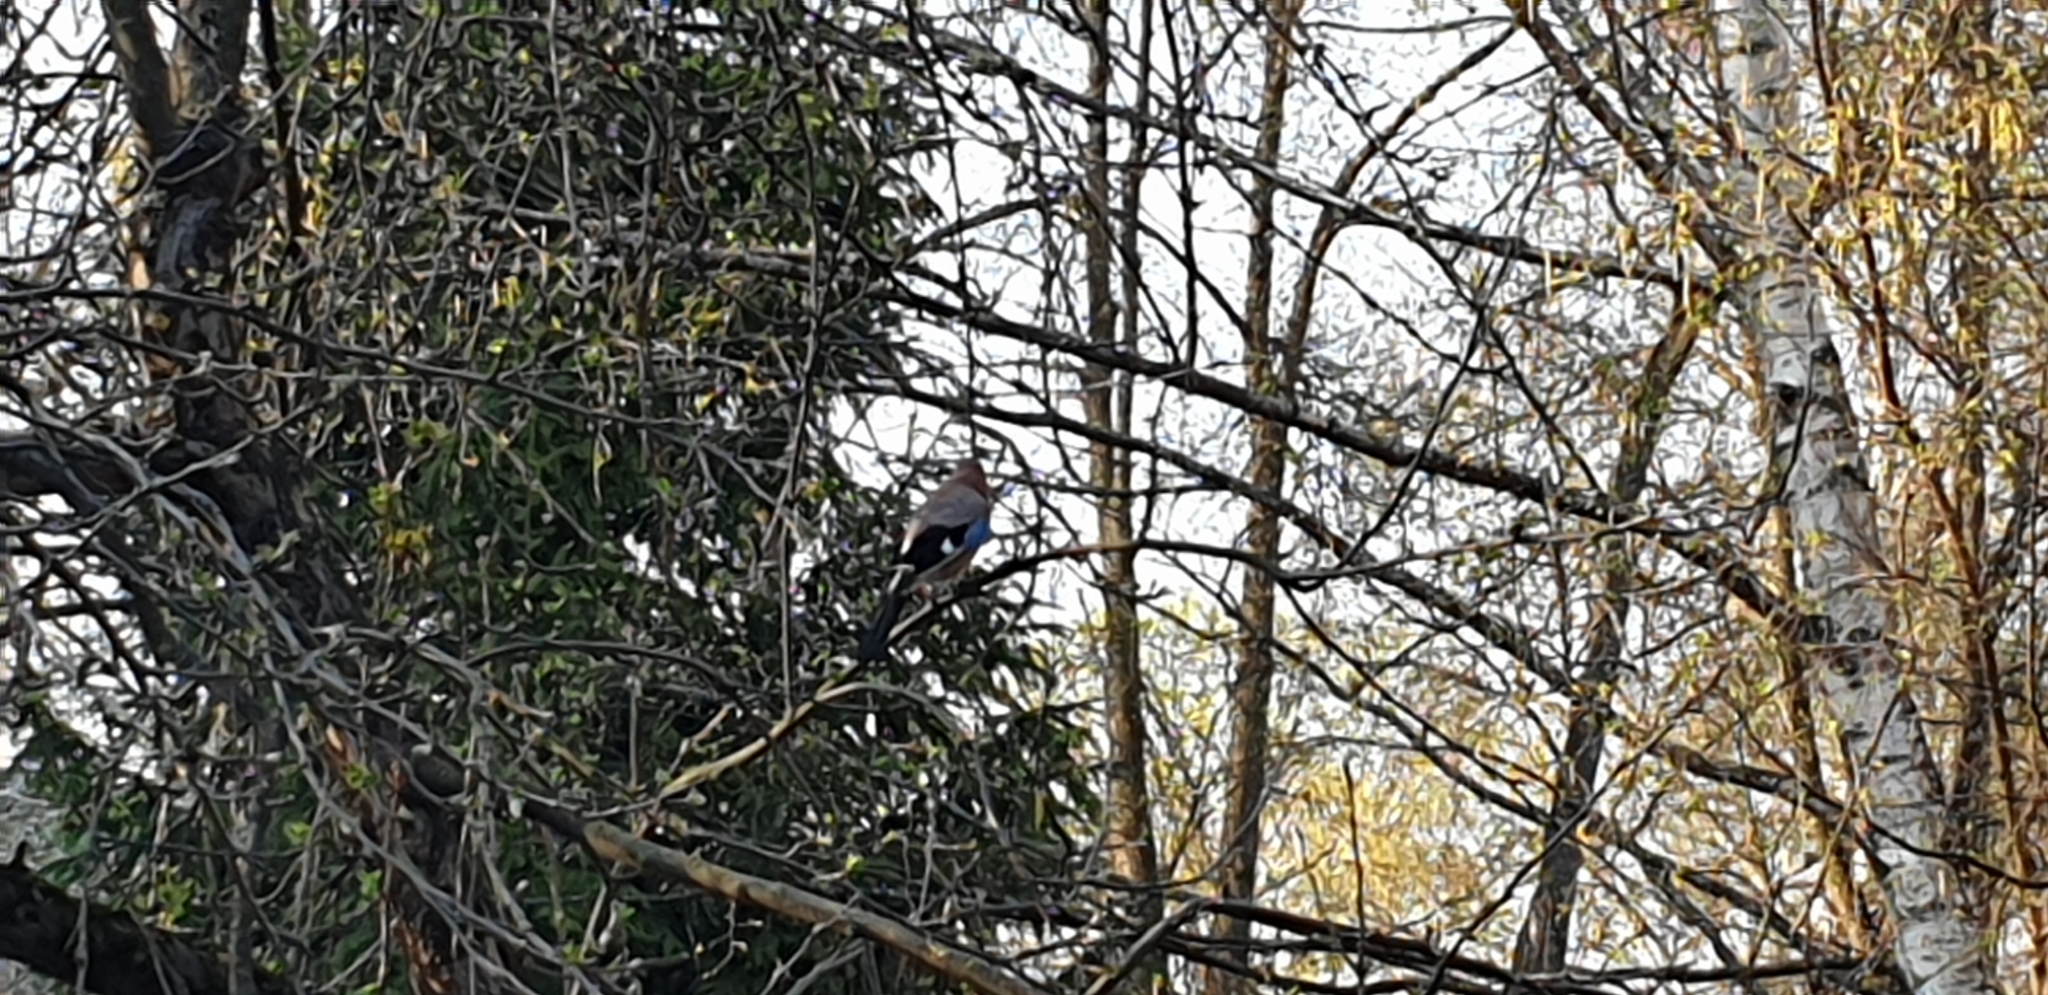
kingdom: Animalia
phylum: Chordata
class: Aves
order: Passeriformes
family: Corvidae
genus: Garrulus
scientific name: Garrulus glandarius
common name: Eurasian jay
